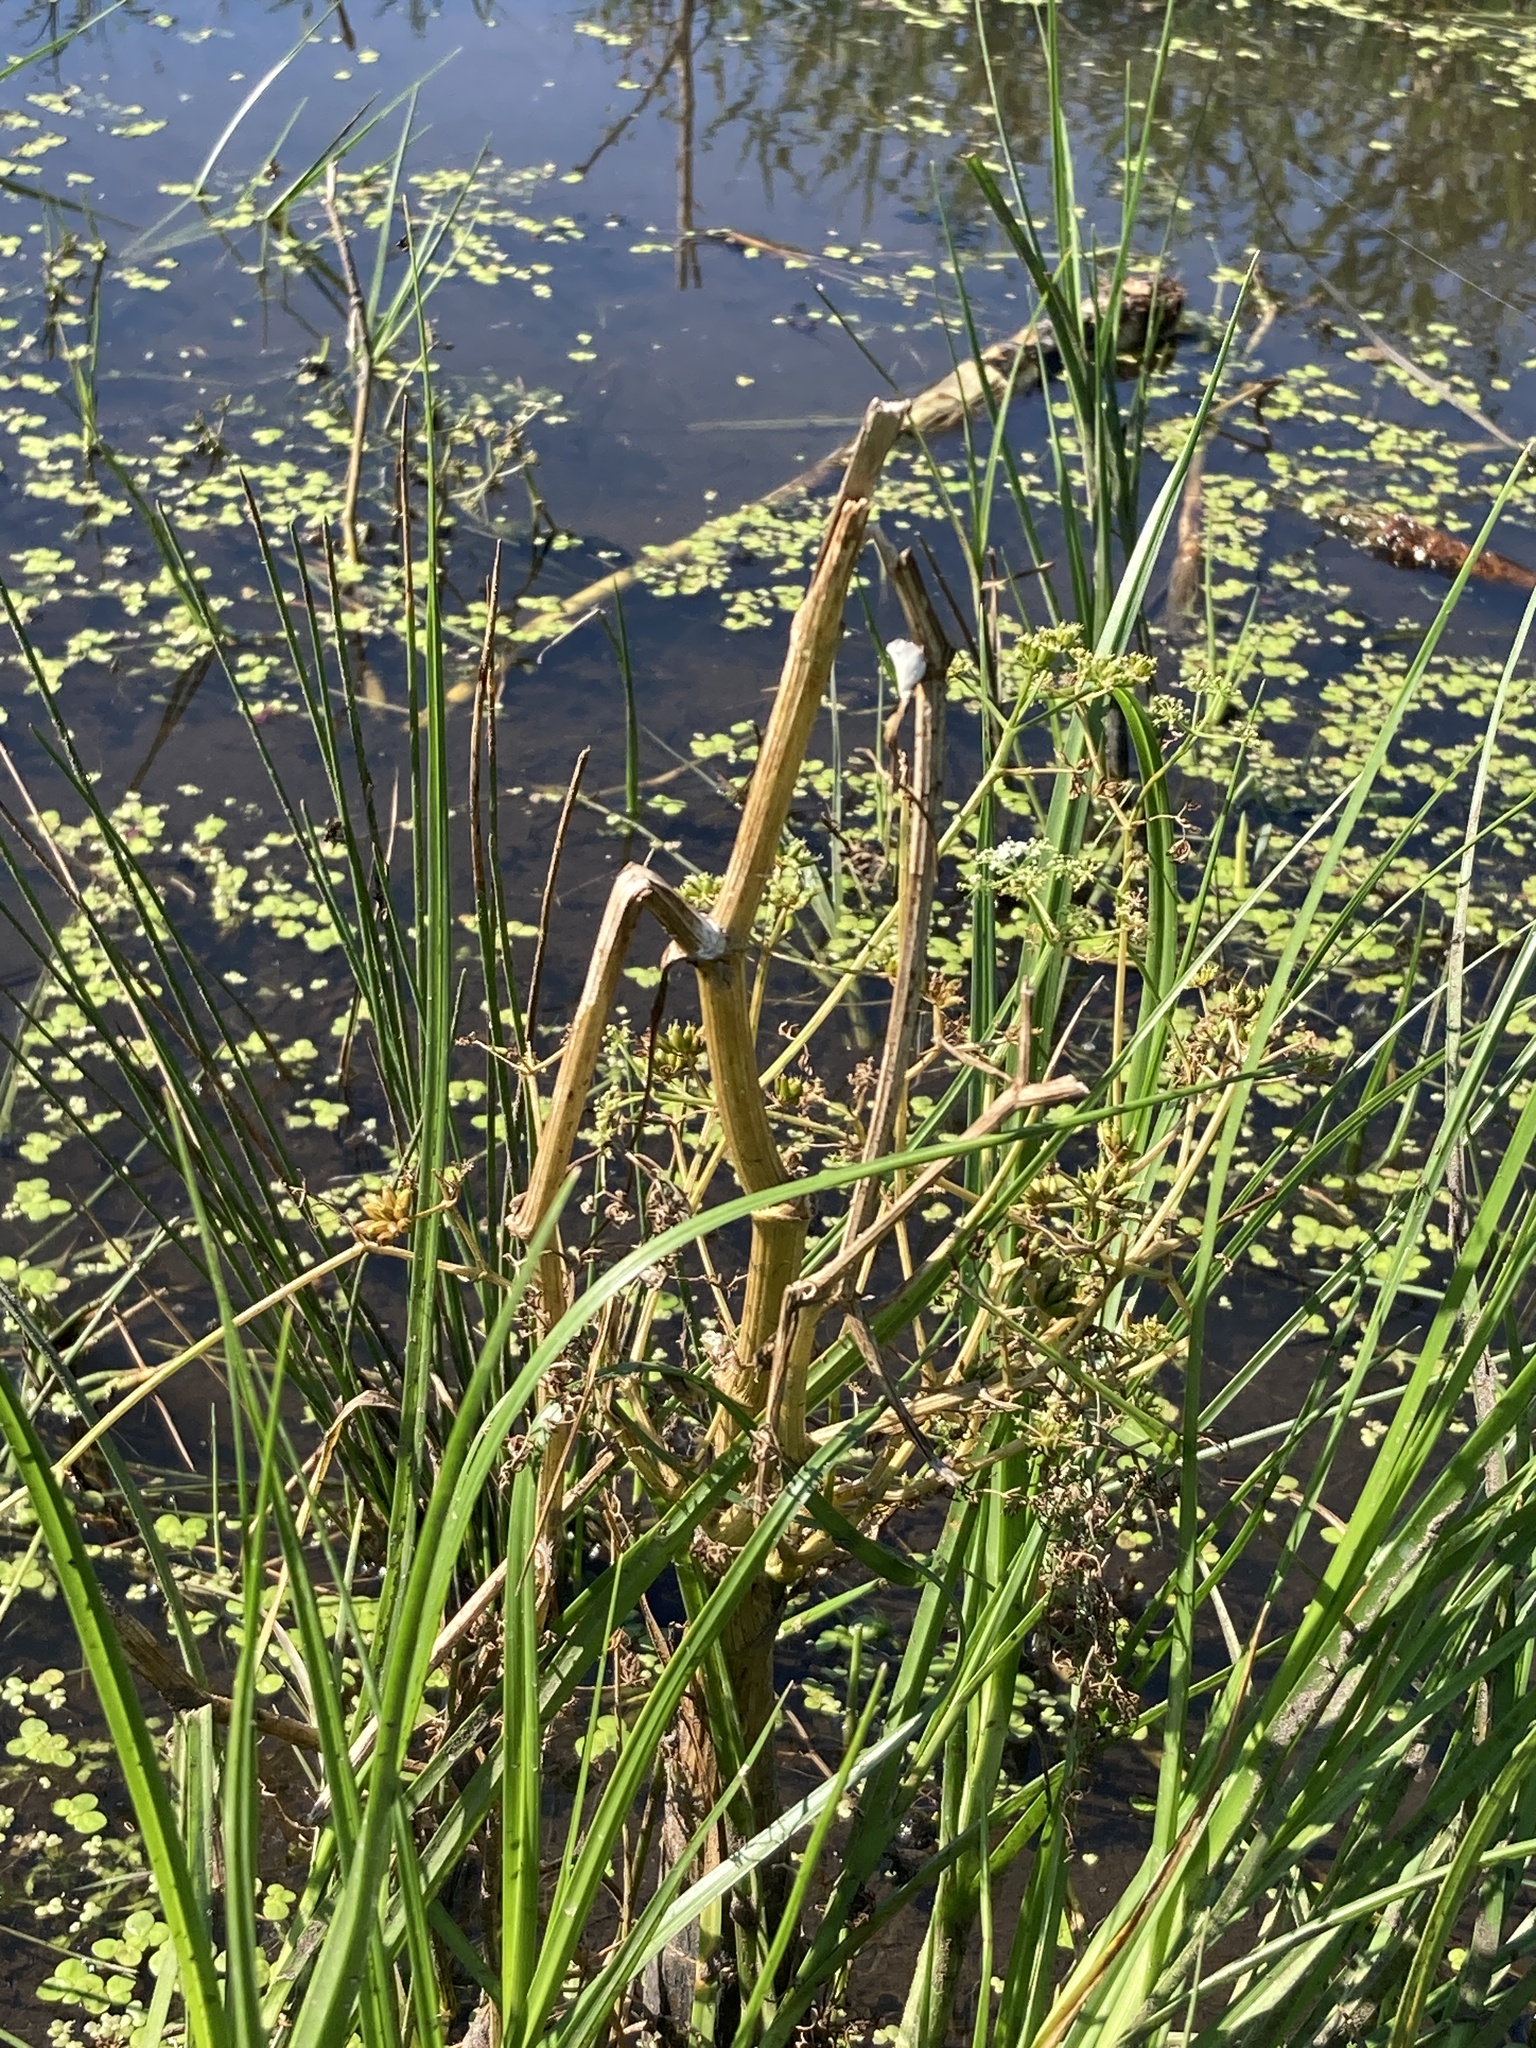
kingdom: Plantae
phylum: Tracheophyta
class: Magnoliopsida
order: Apiales
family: Apiaceae
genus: Oenanthe
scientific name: Oenanthe aquatica
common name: Fine-leaved water-dropwort
